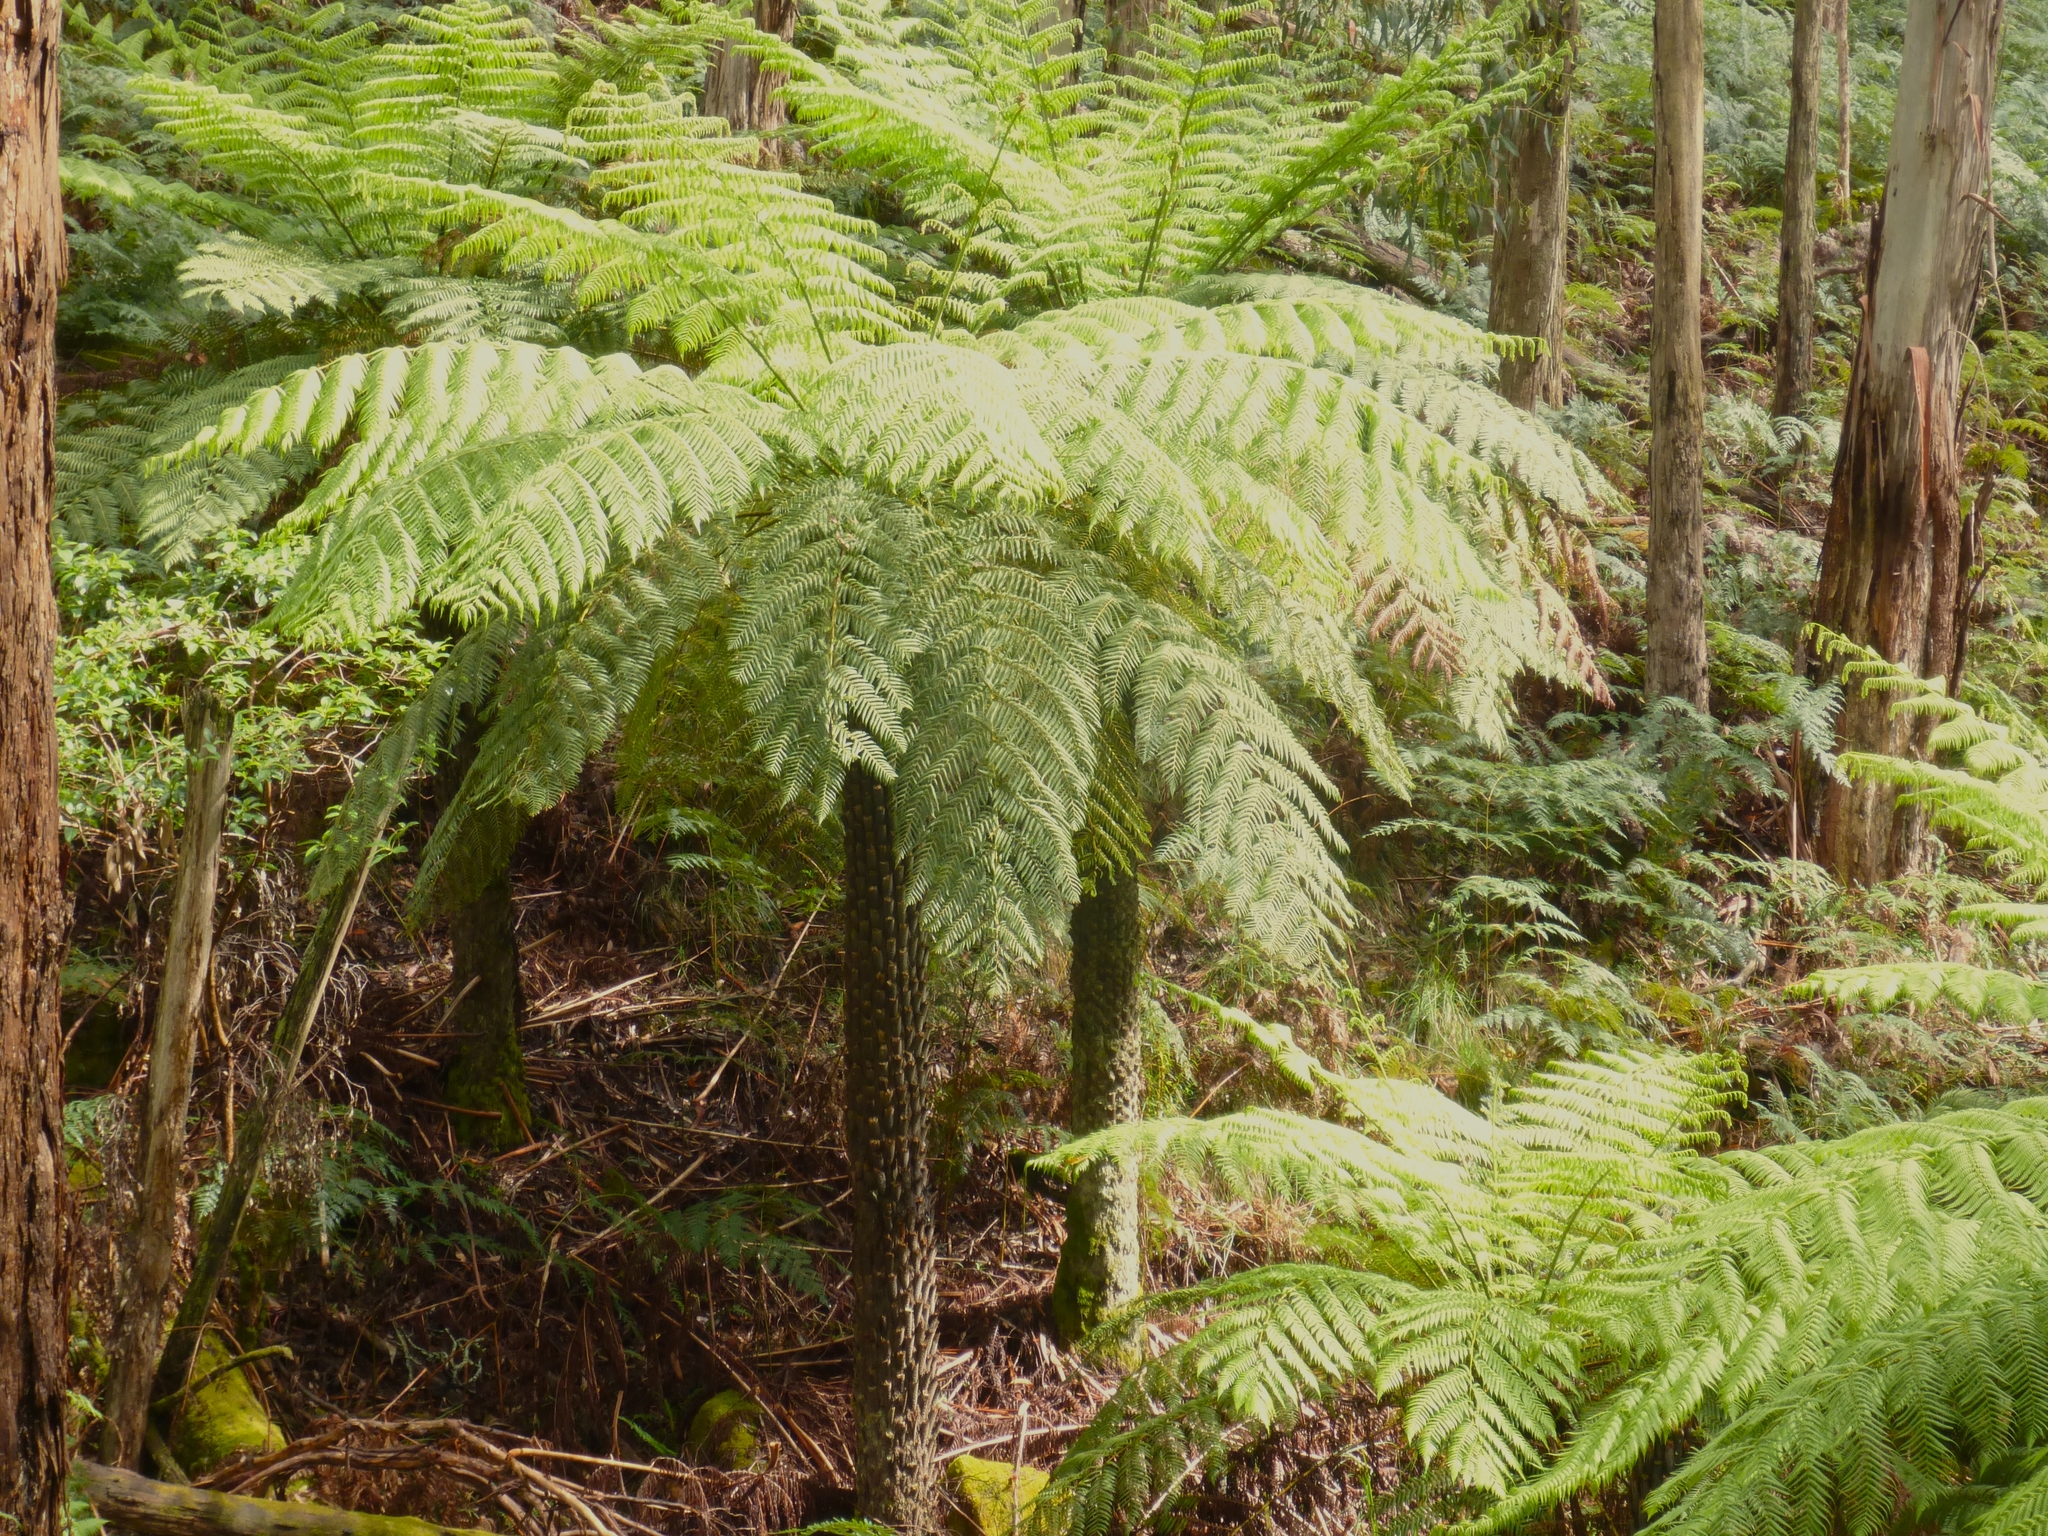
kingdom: Plantae
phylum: Tracheophyta
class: Polypodiopsida
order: Cyatheales
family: Cyatheaceae
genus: Alsophila
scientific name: Alsophila australis
